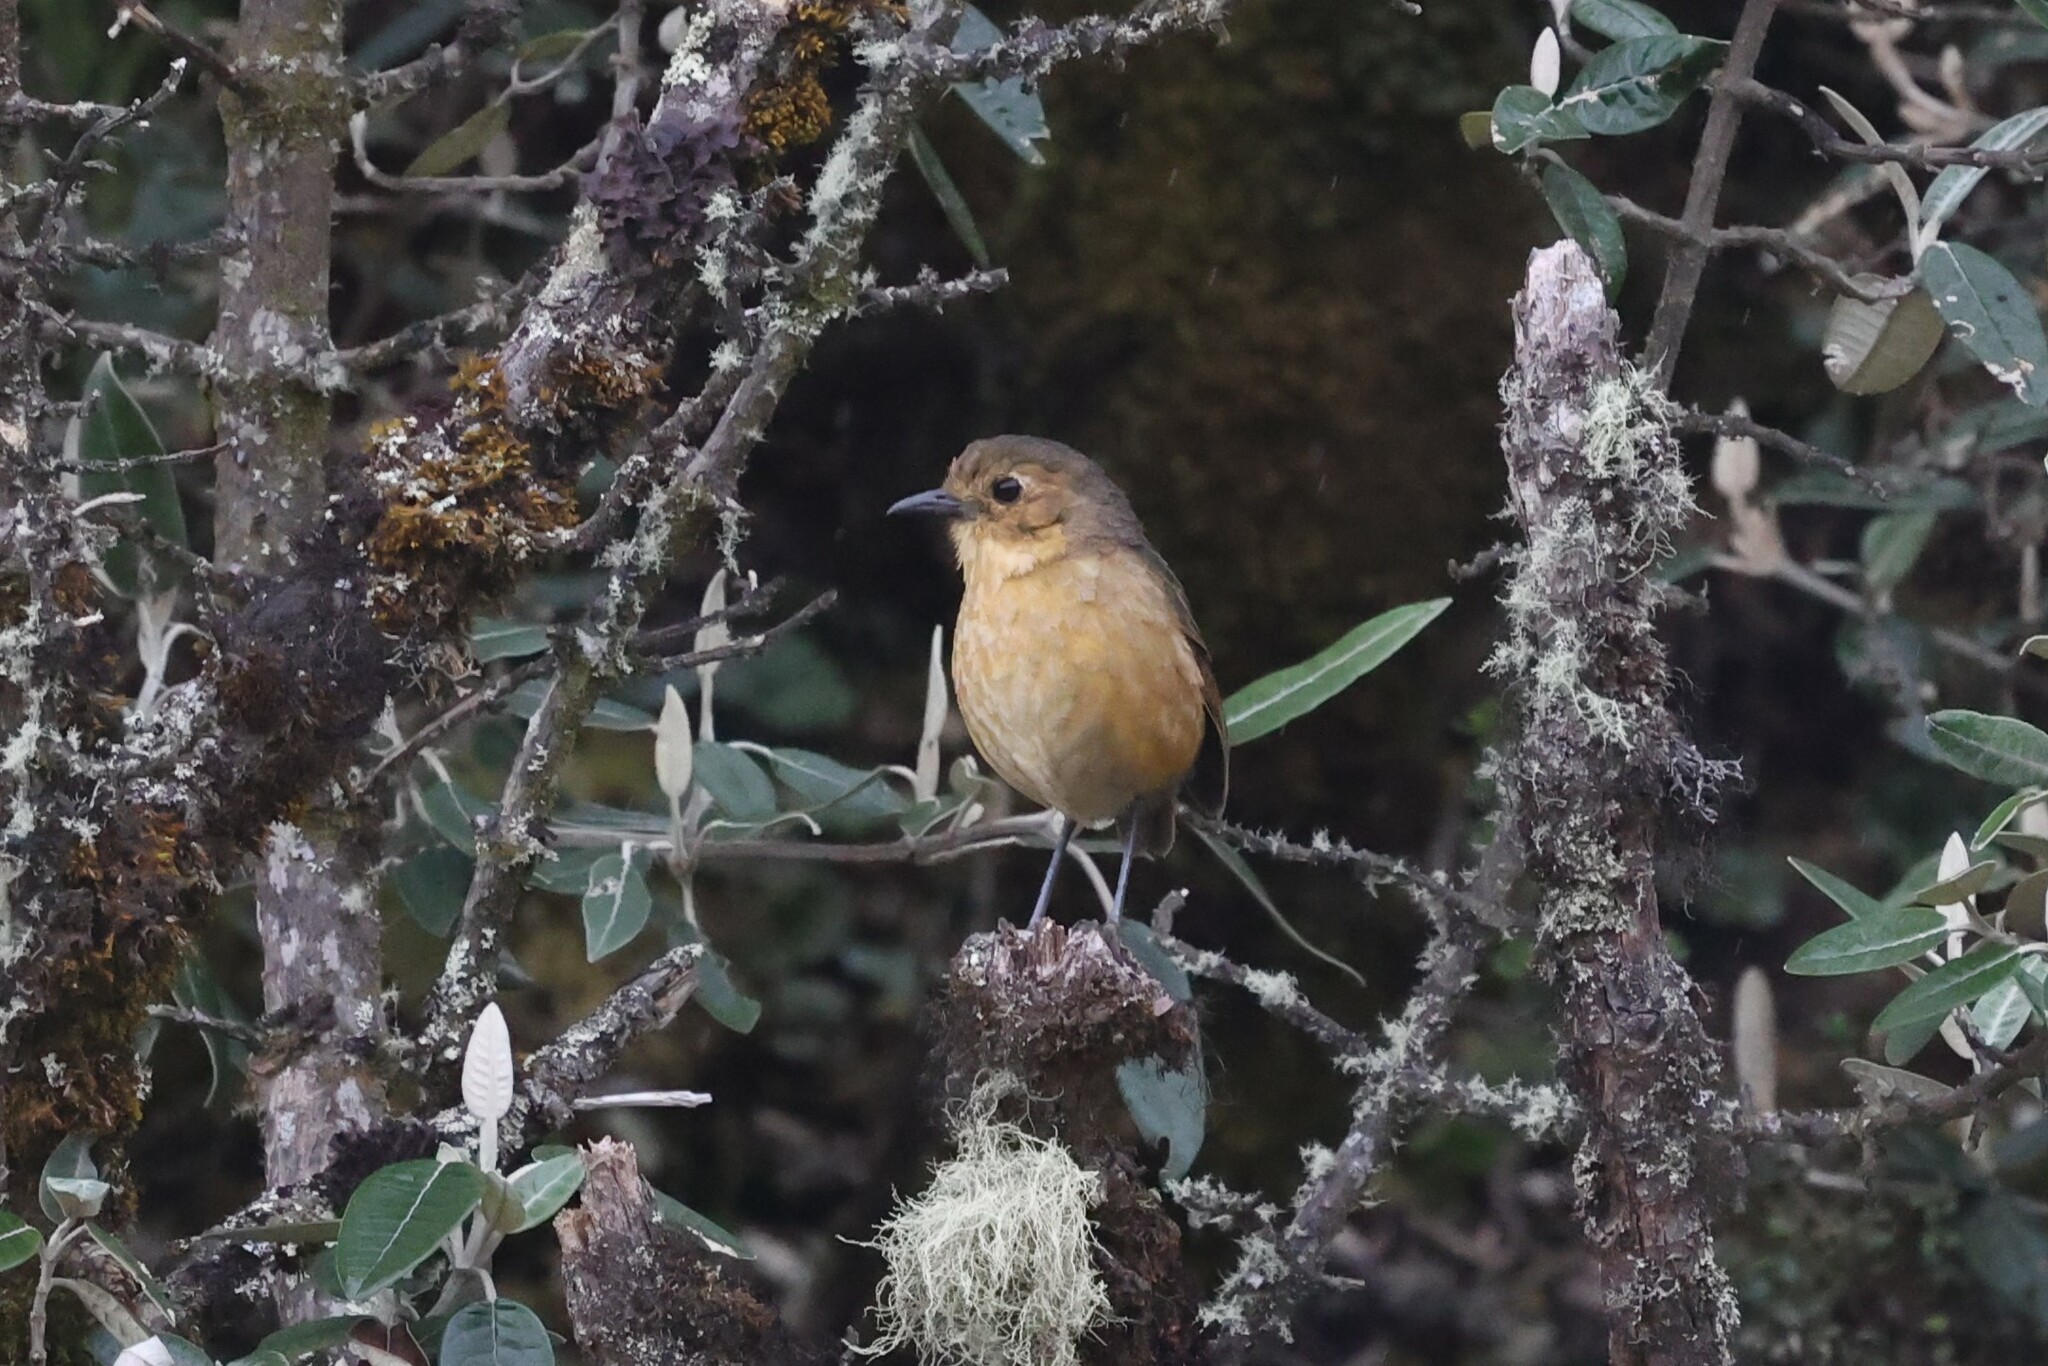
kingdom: Animalia
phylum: Chordata
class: Aves
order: Passeriformes
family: Grallariidae
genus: Grallaria
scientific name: Grallaria quitensis
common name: Tawny antpitta
